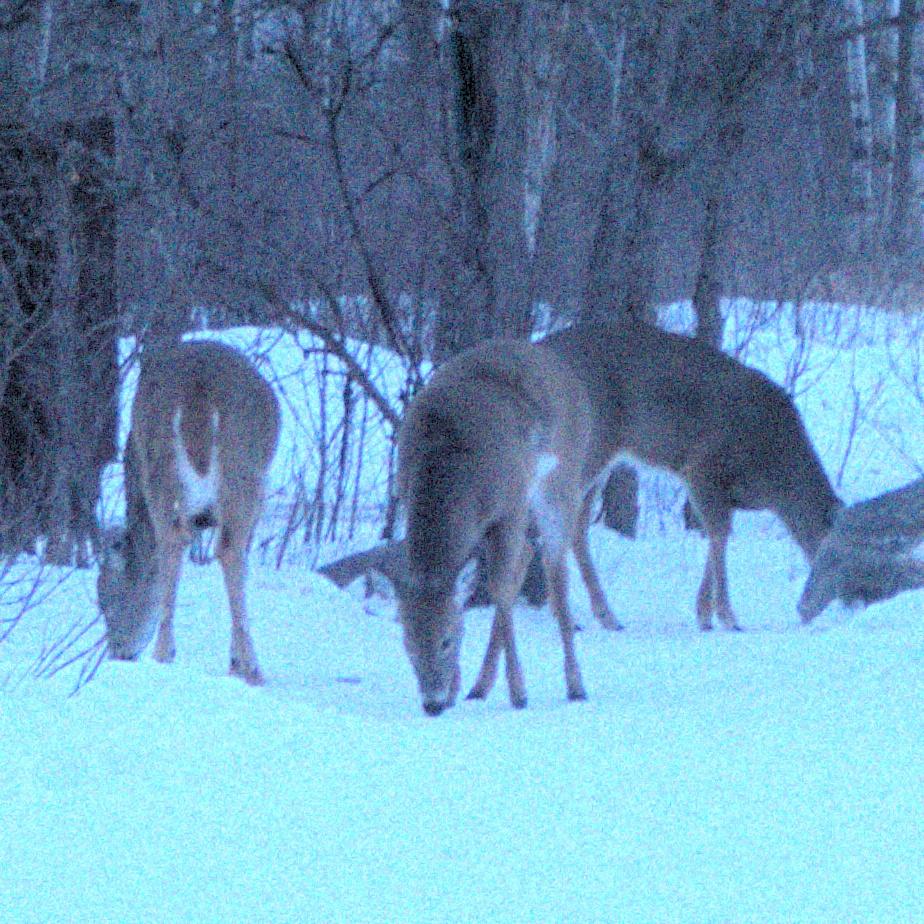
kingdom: Animalia
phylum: Chordata
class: Mammalia
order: Artiodactyla
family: Cervidae
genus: Odocoileus
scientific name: Odocoileus virginianus
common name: White-tailed deer
